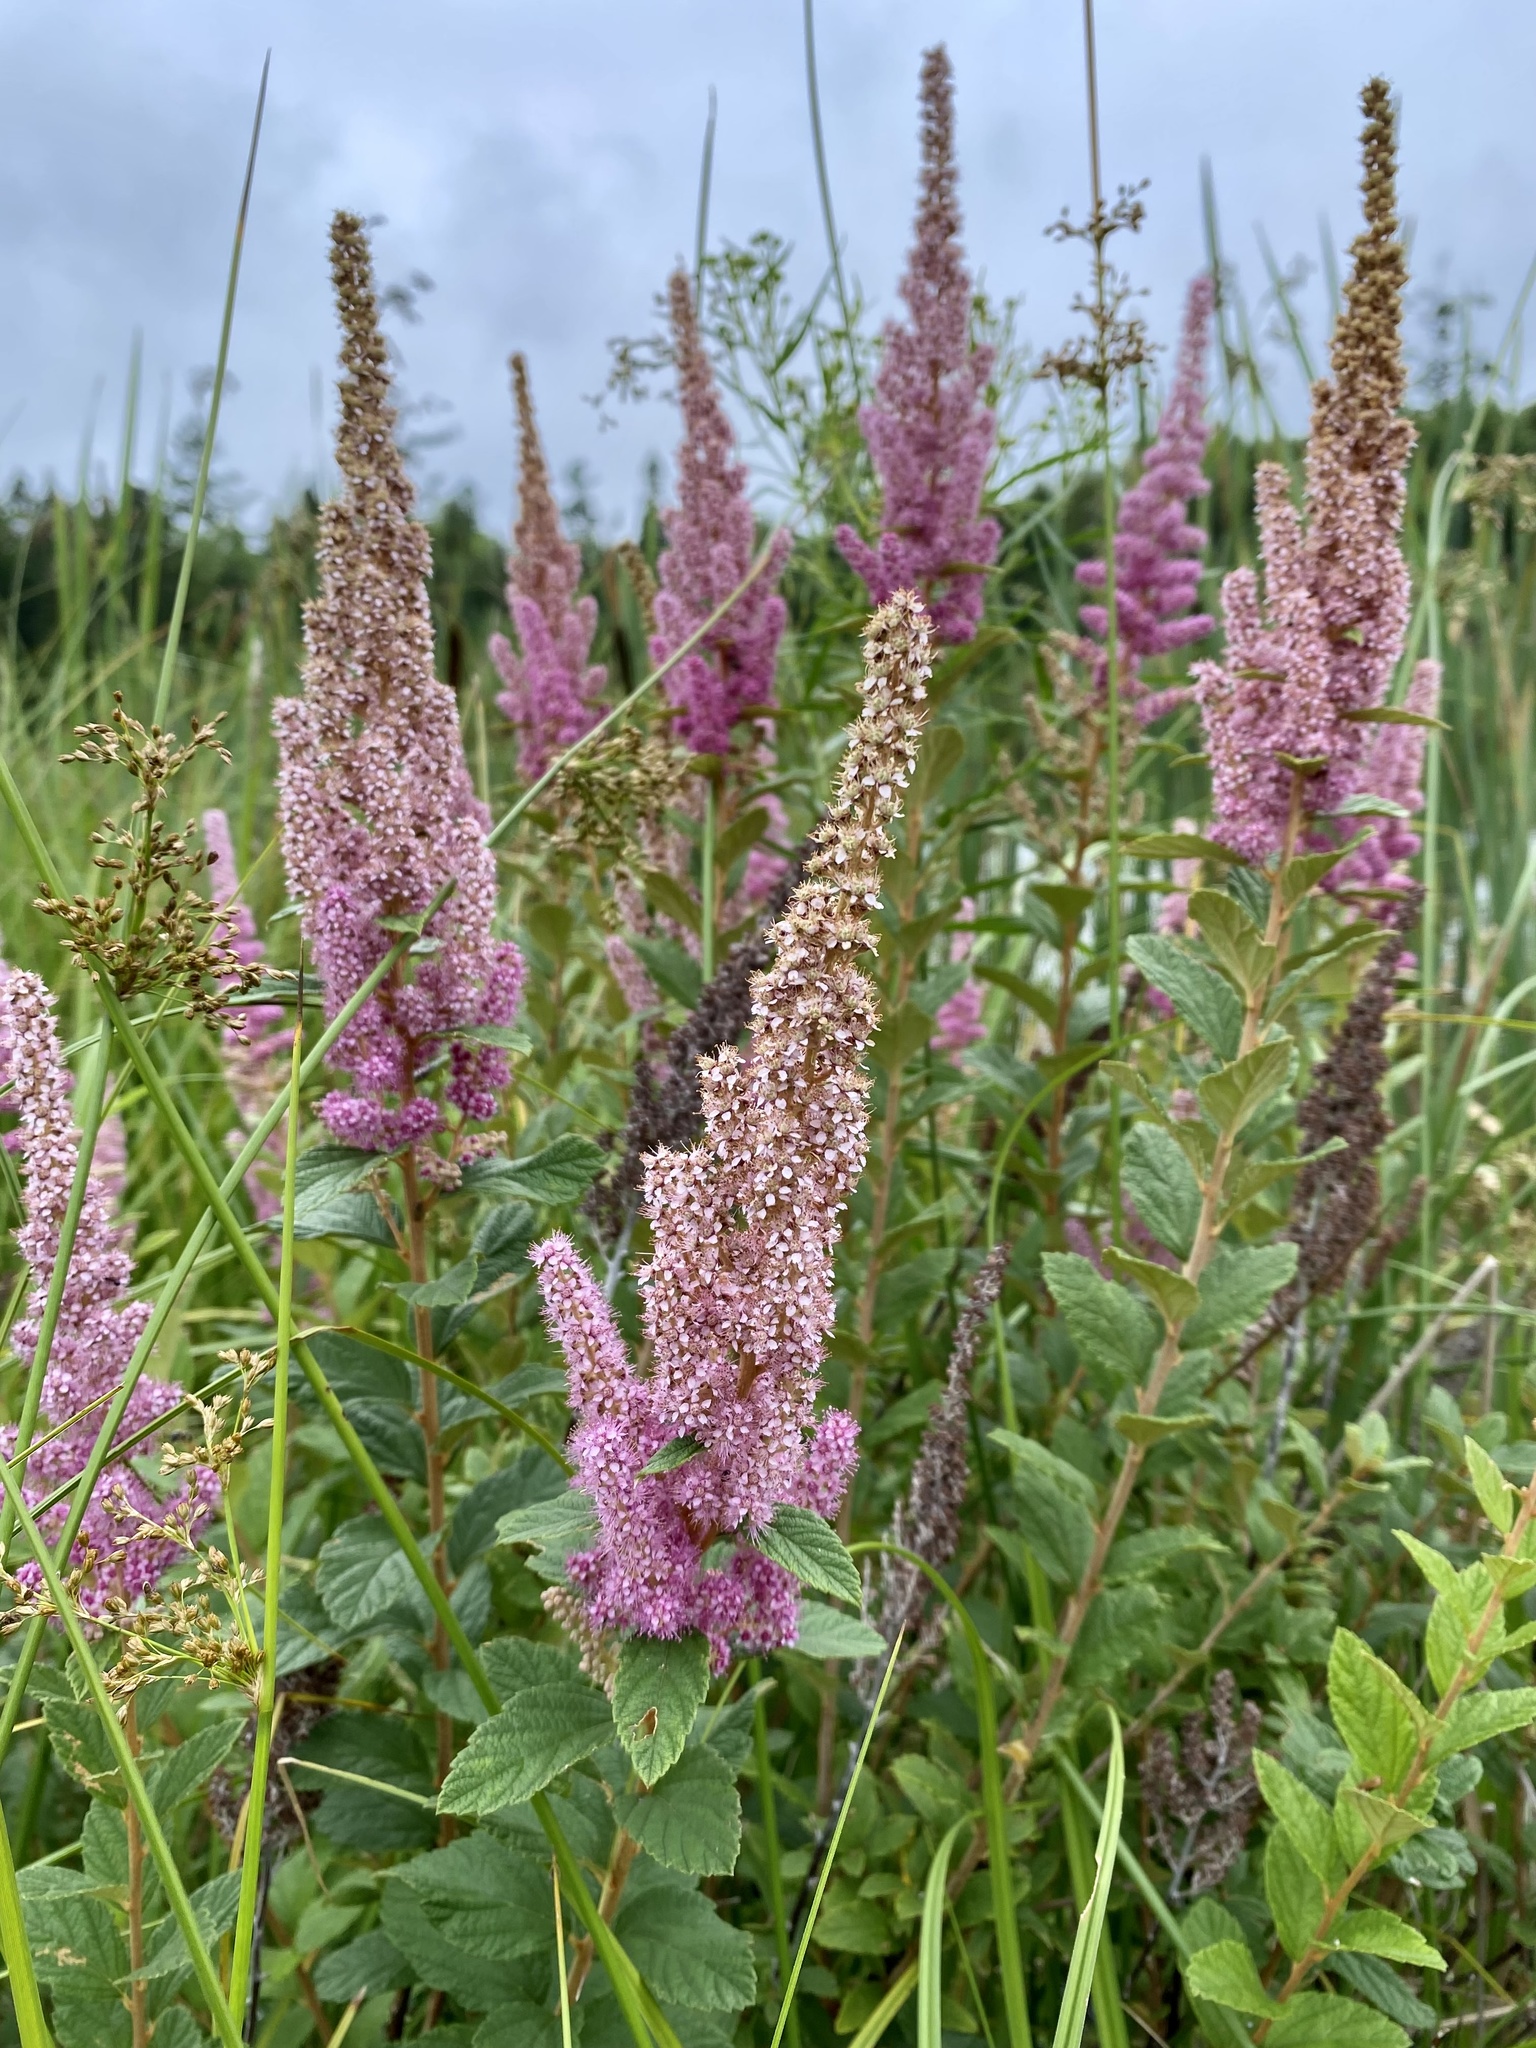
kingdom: Plantae
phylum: Tracheophyta
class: Magnoliopsida
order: Rosales
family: Rosaceae
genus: Spiraea
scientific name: Spiraea tomentosa
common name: Hardhack
